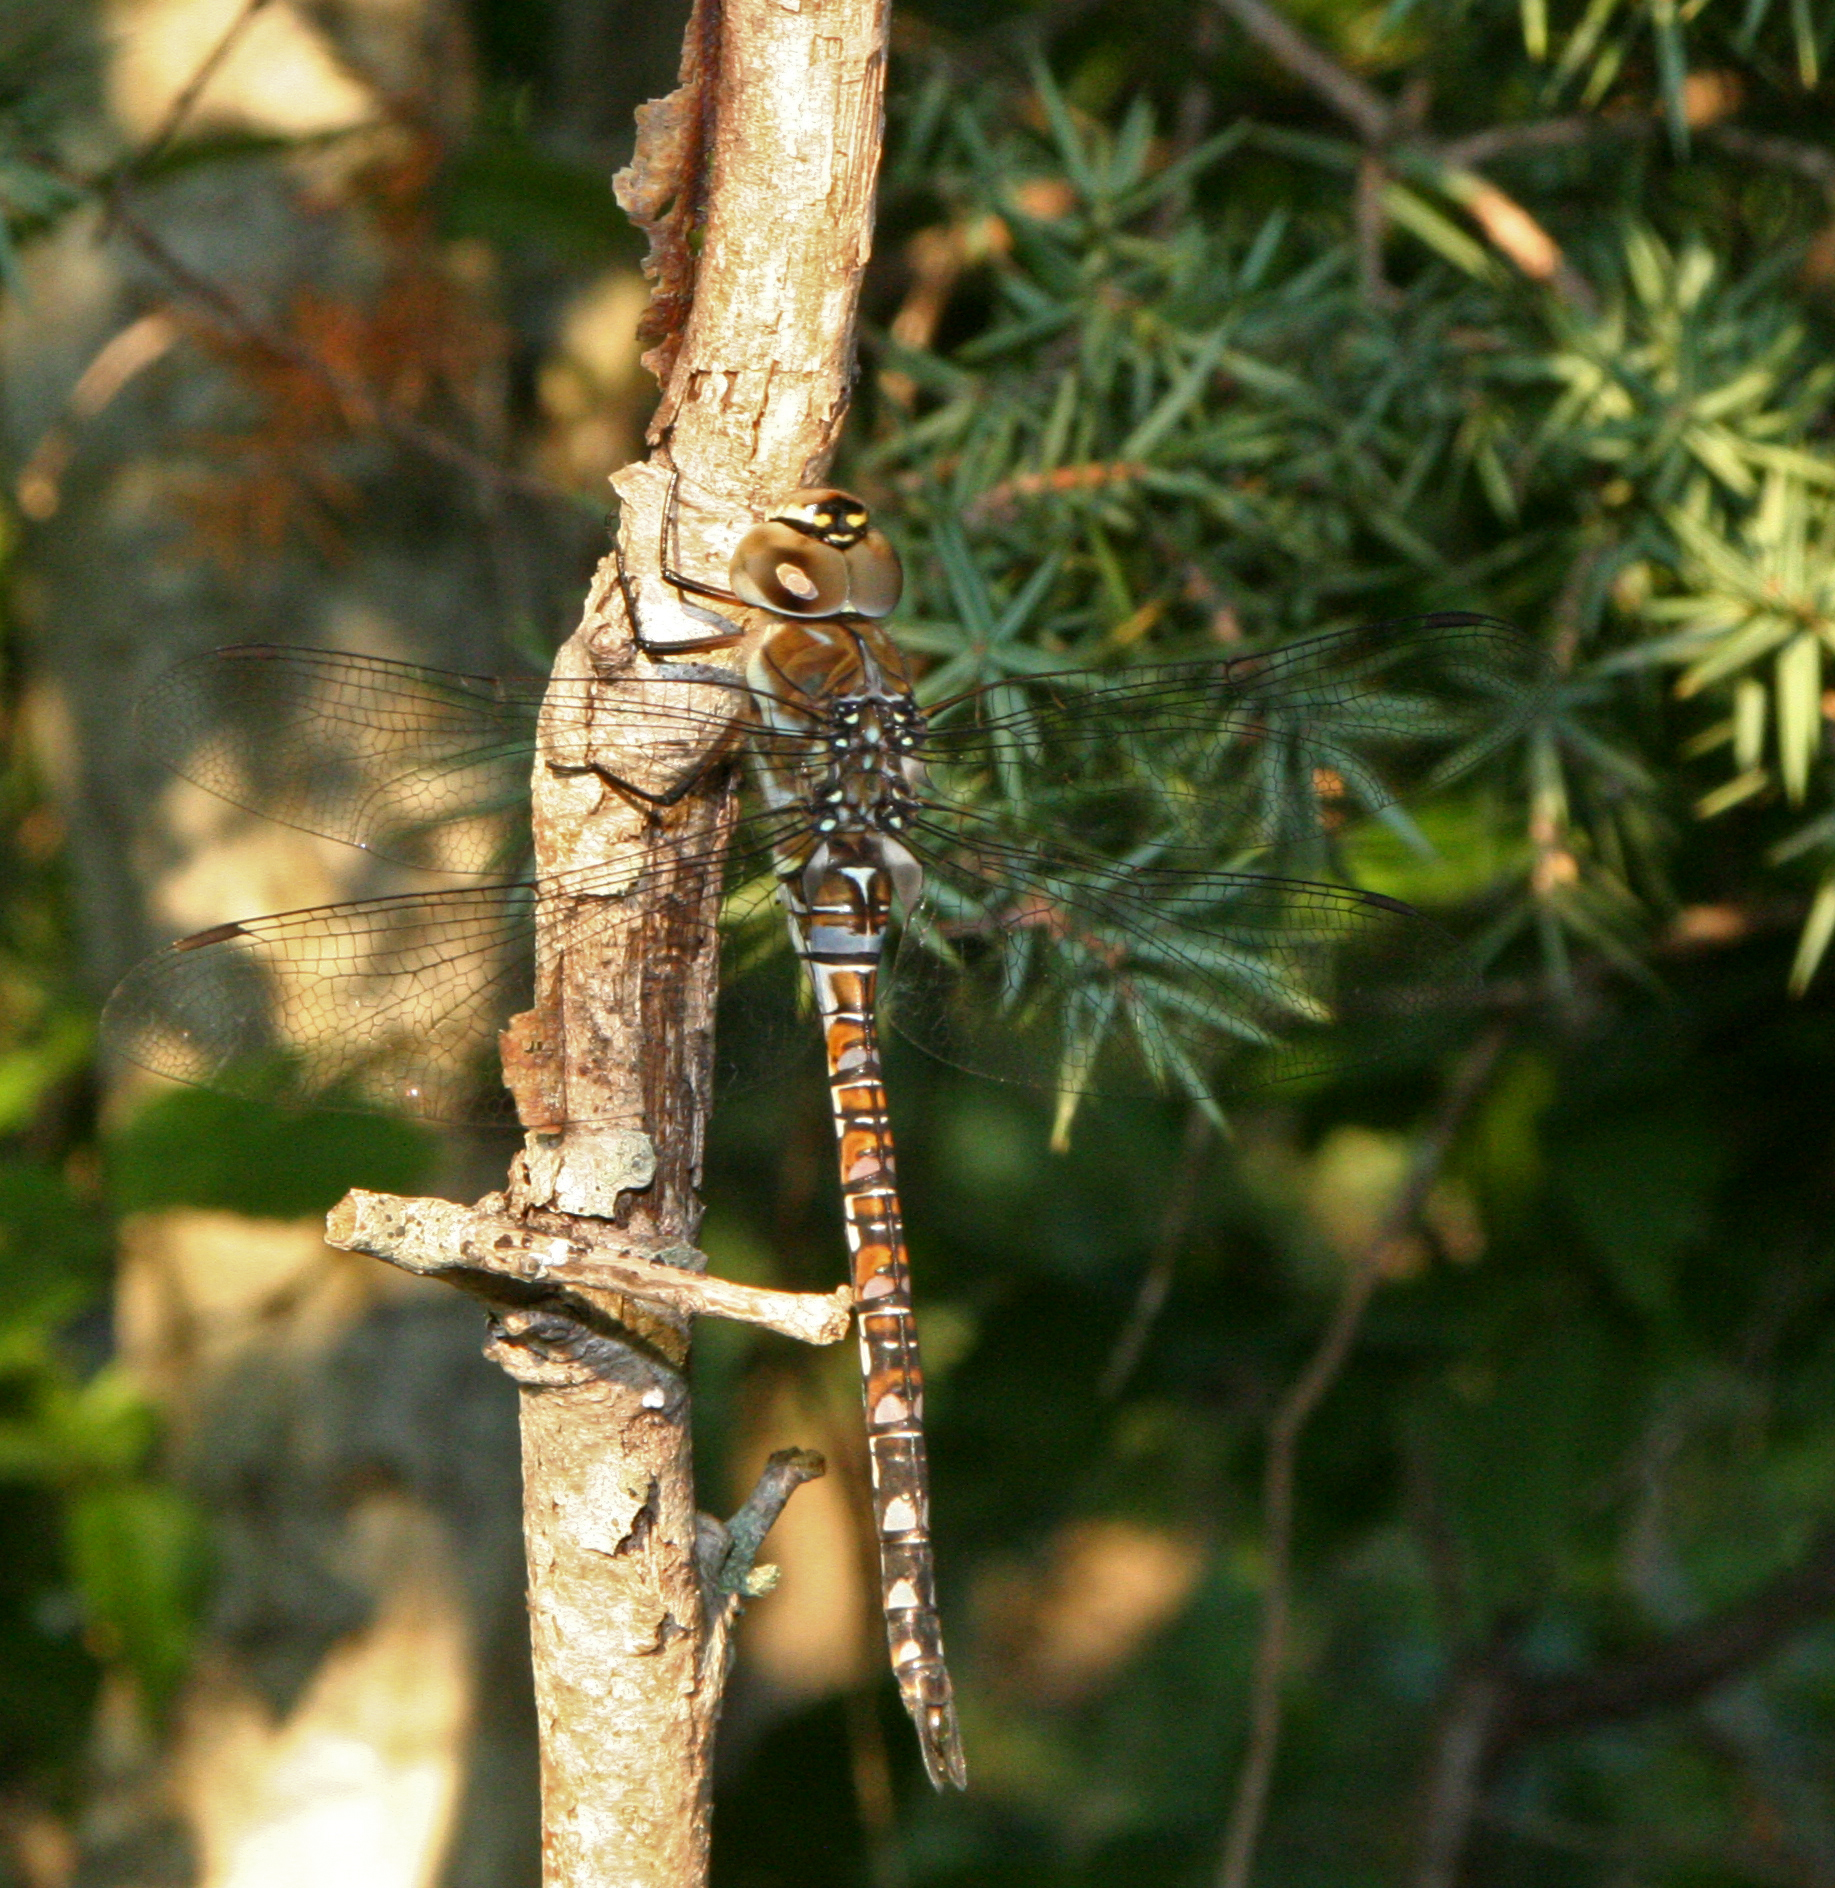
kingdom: Animalia
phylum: Arthropoda
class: Insecta
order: Odonata
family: Aeshnidae
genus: Aeshna
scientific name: Aeshna mixta
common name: Migrant hawker
